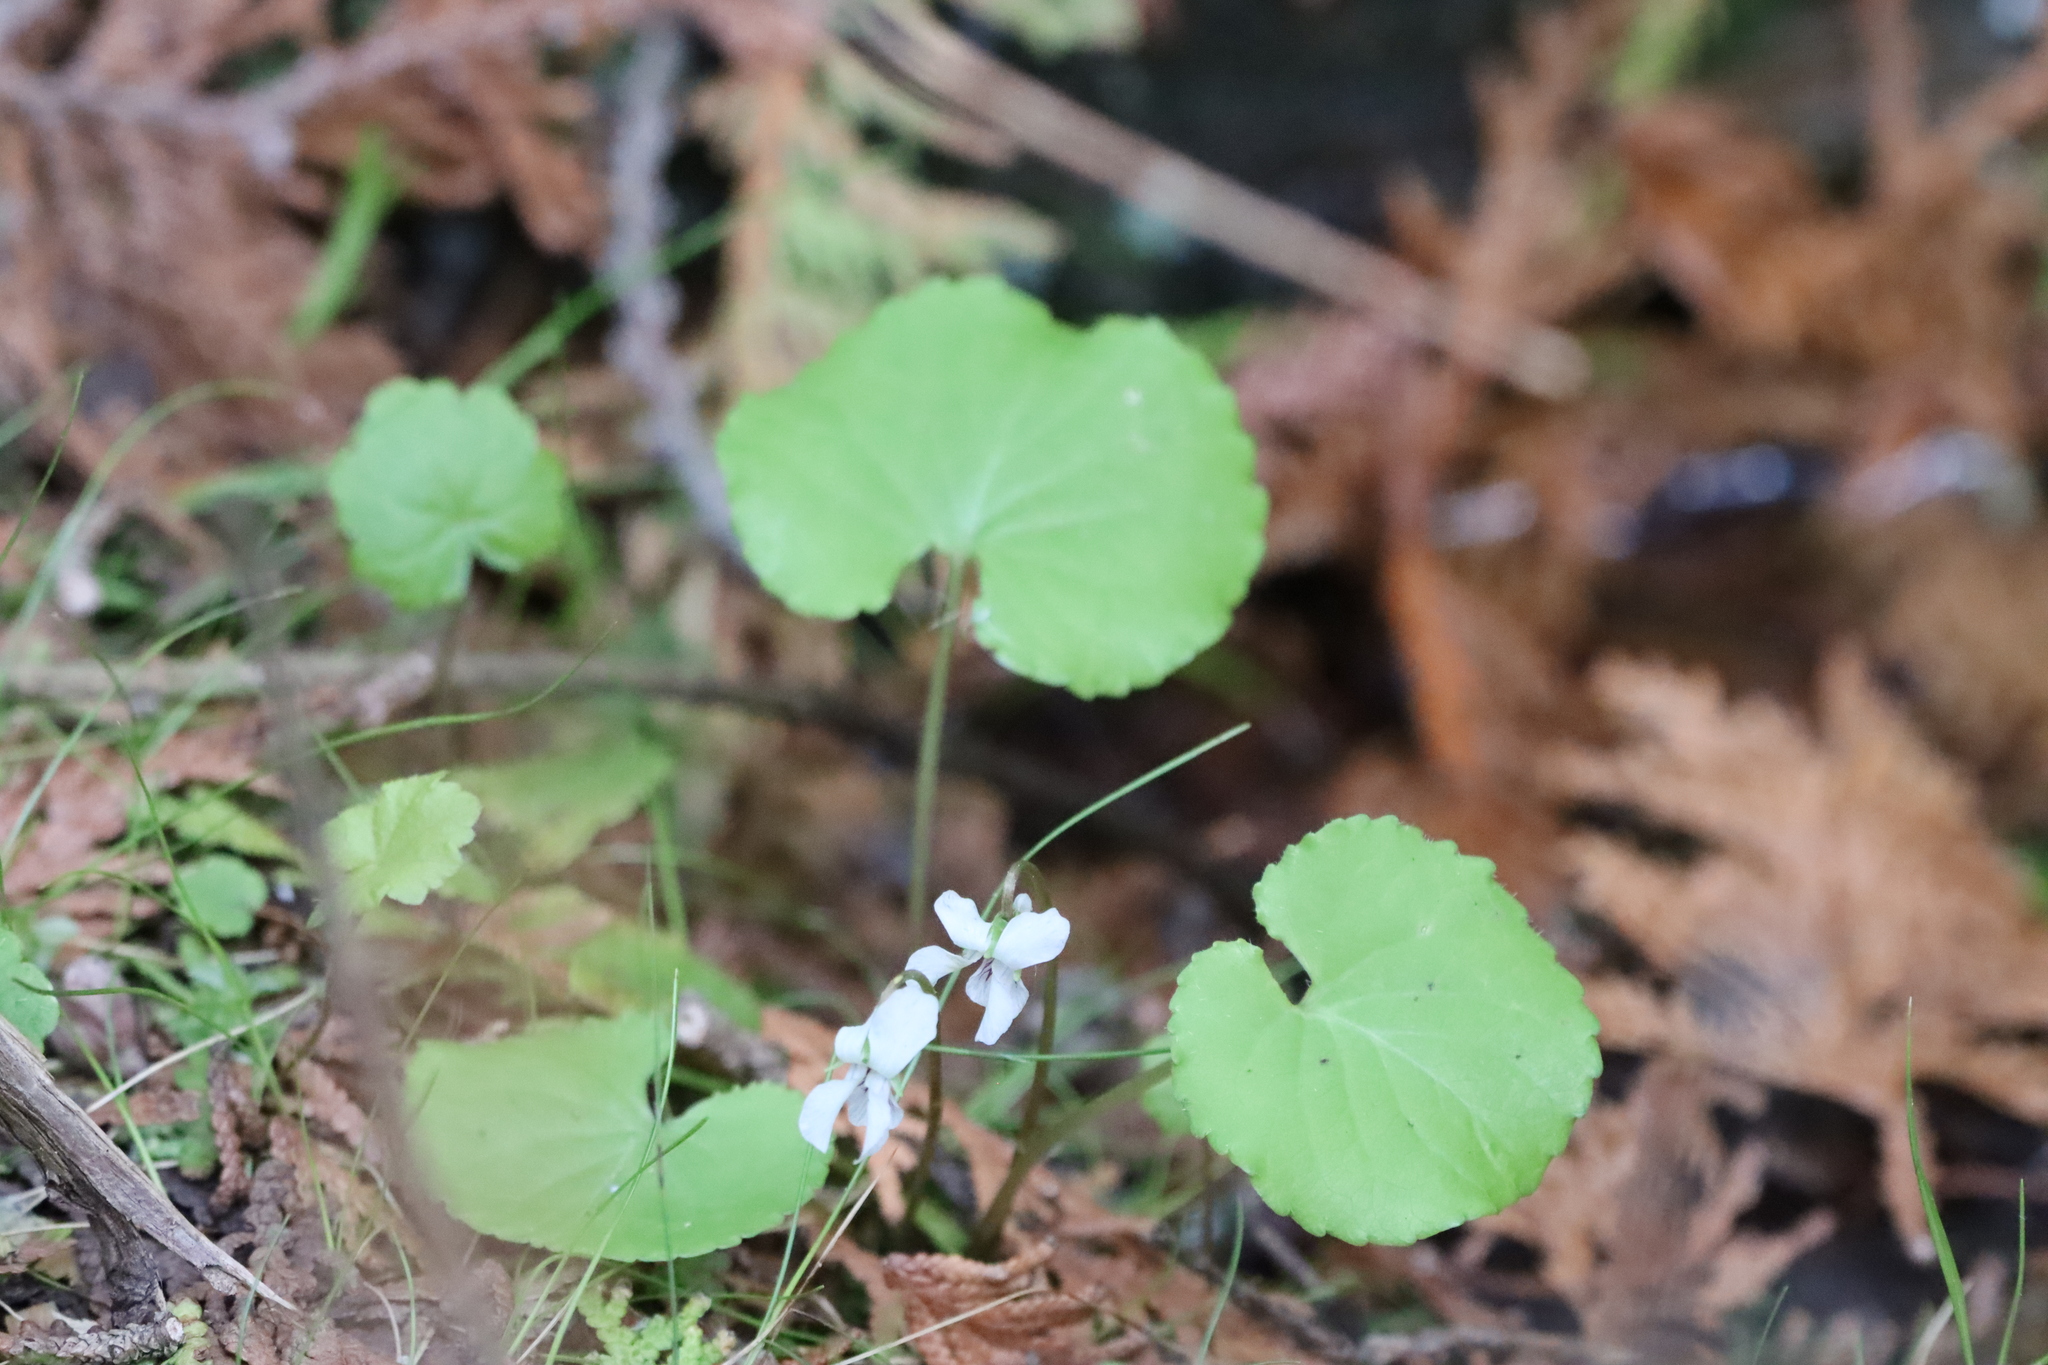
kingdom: Plantae
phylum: Tracheophyta
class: Magnoliopsida
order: Malpighiales
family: Violaceae
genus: Viola
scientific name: Viola renifolia
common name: Kidney-leaf violet
